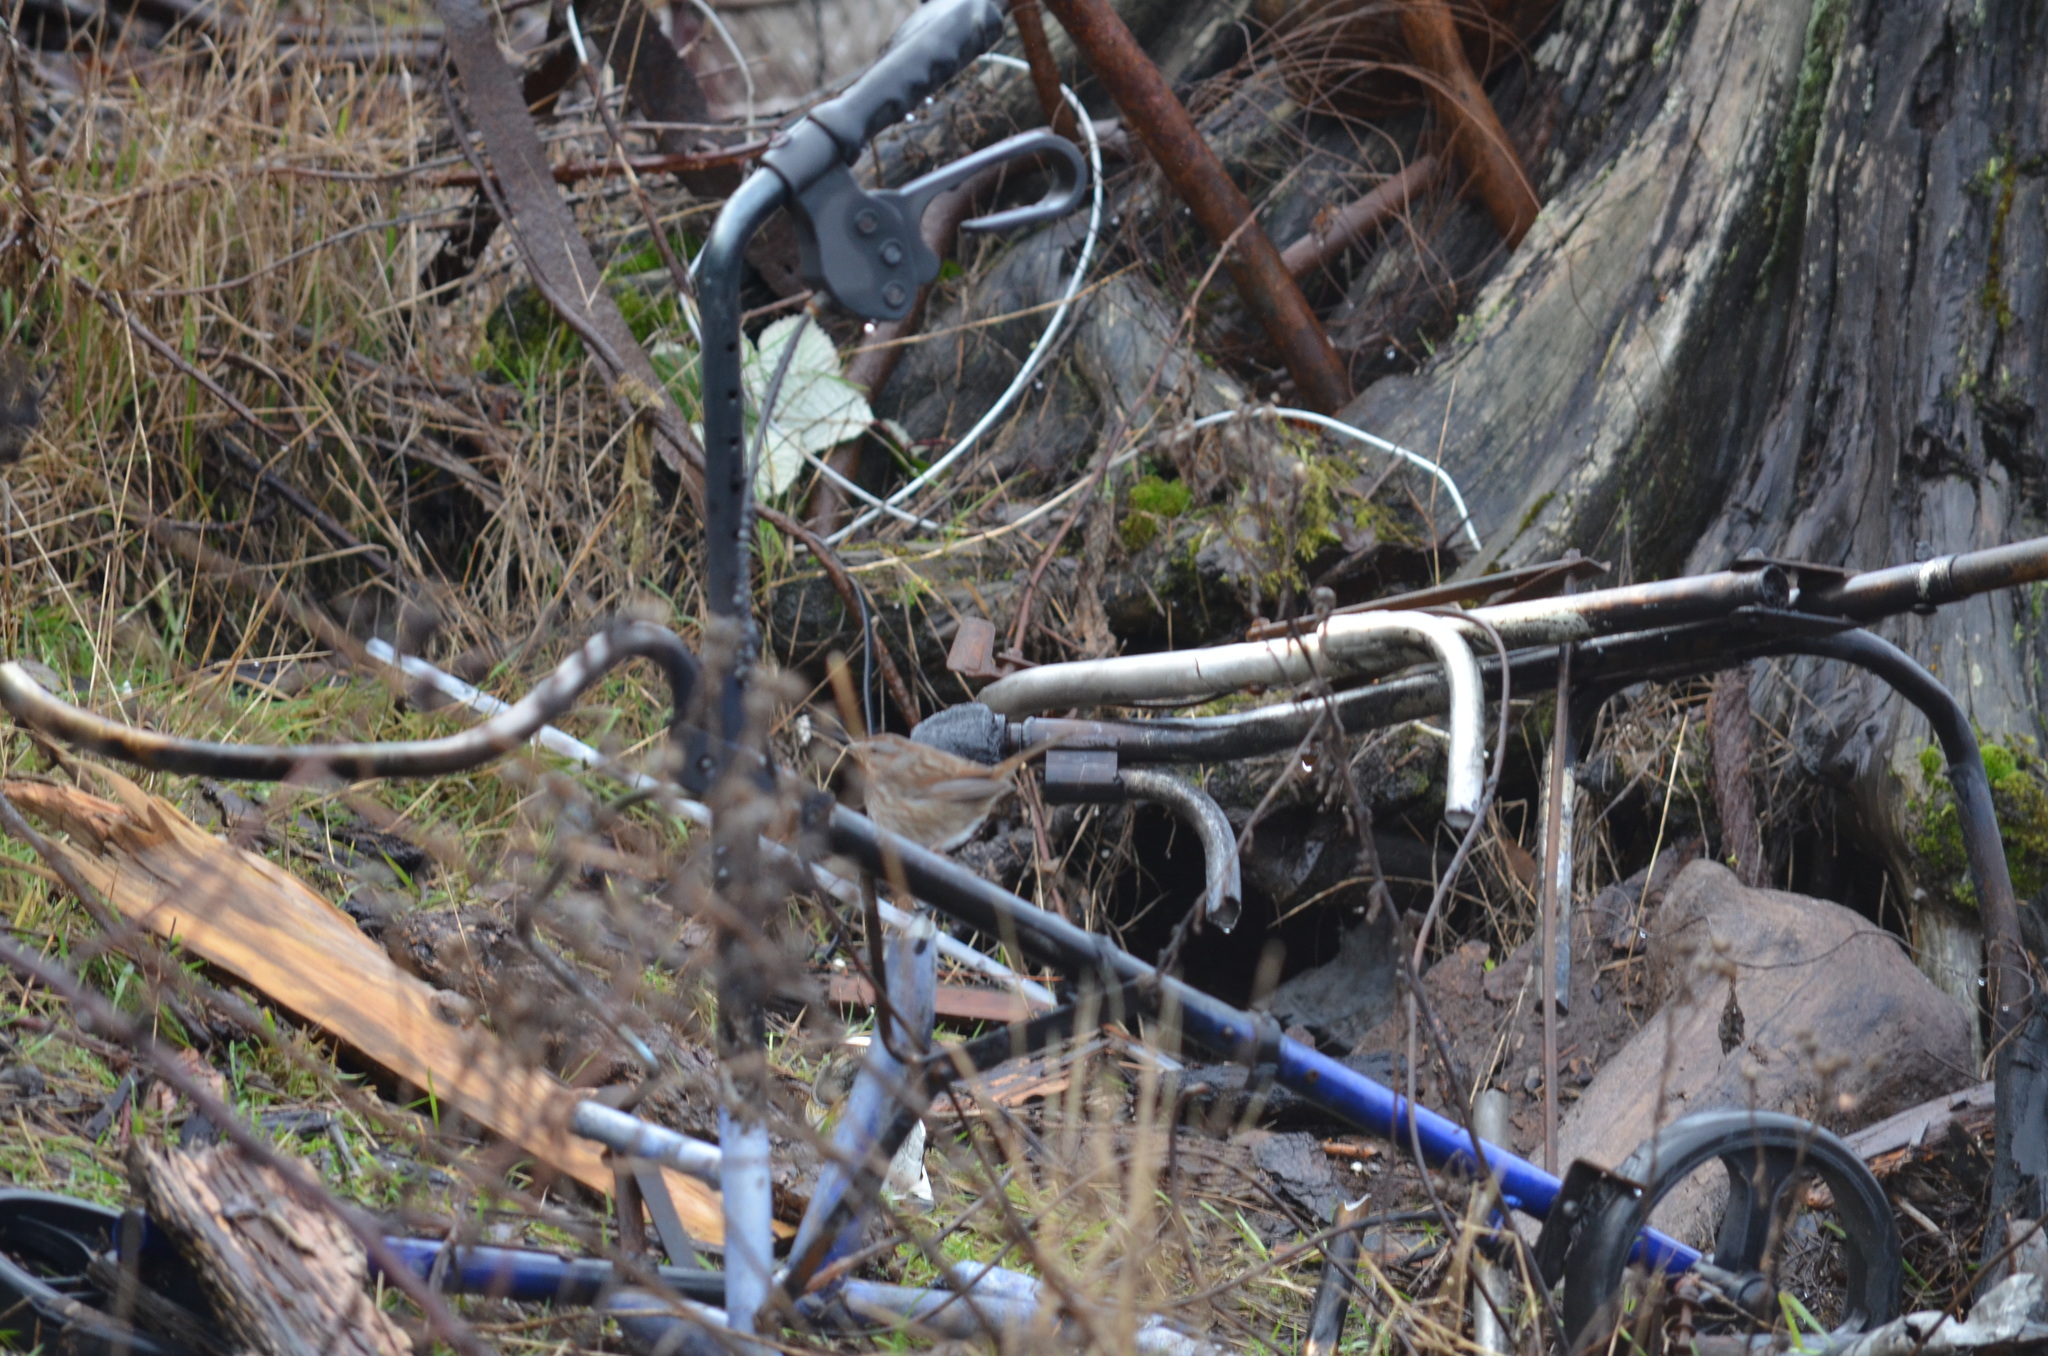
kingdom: Animalia
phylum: Chordata
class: Aves
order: Passeriformes
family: Passerellidae
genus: Melospiza
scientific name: Melospiza melodia
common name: Song sparrow
